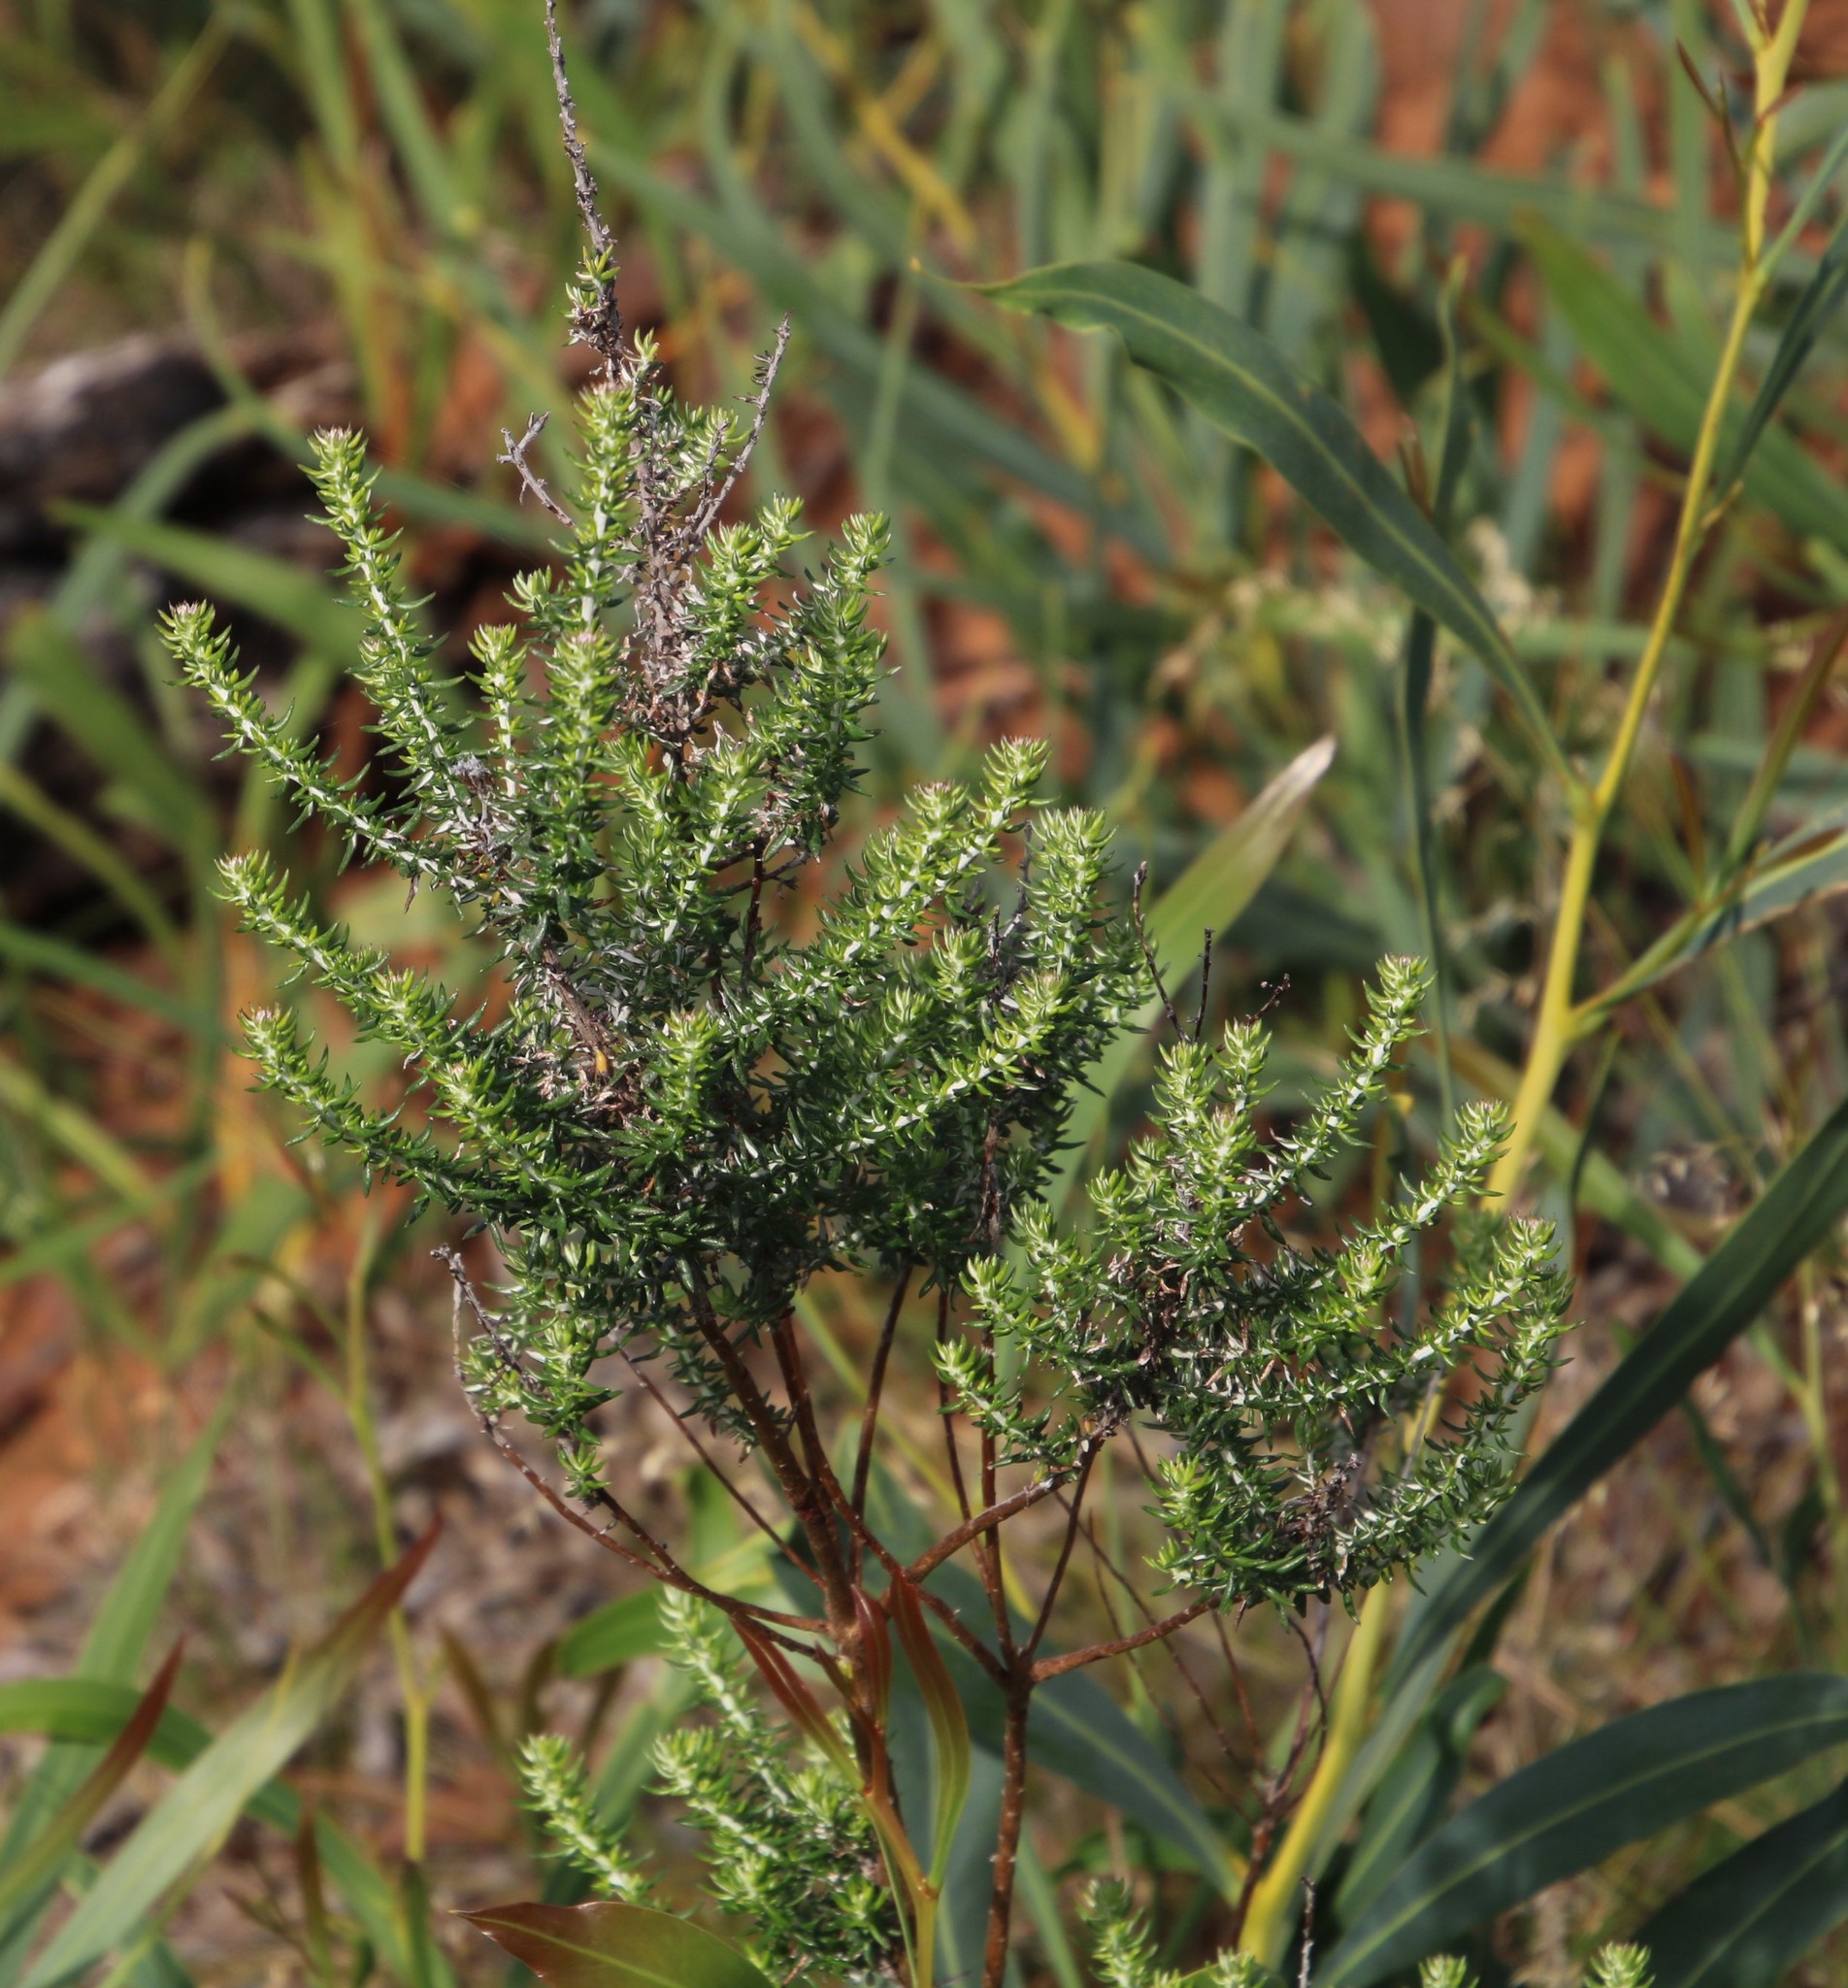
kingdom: Plantae
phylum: Tracheophyta
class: Magnoliopsida
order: Asterales
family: Asteraceae
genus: Metalasia
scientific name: Metalasia densa
